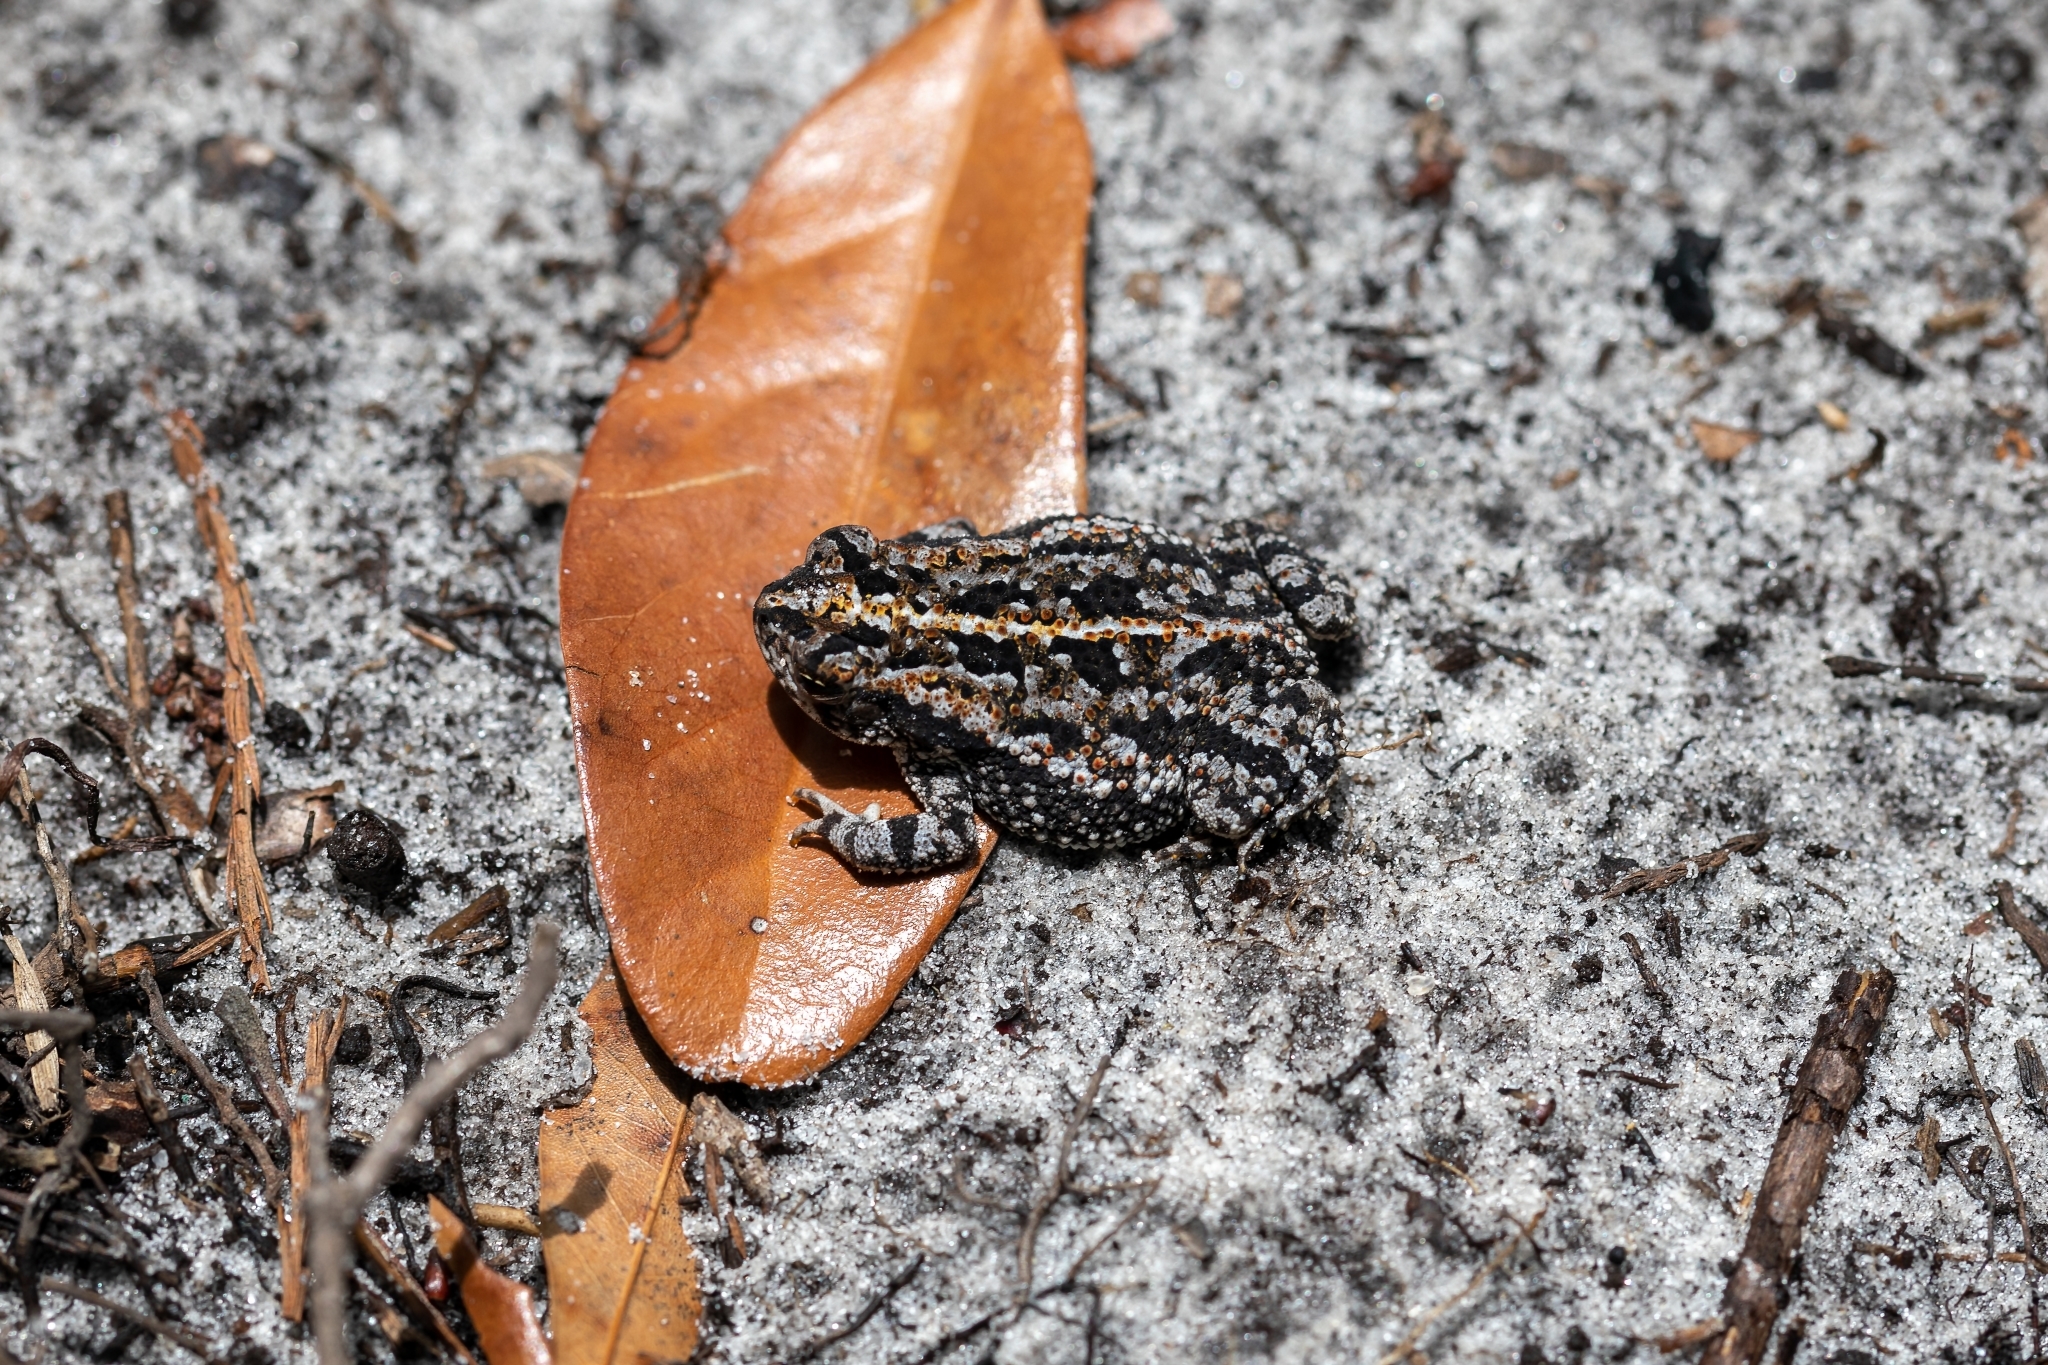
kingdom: Animalia
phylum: Chordata
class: Amphibia
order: Anura
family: Bufonidae
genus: Anaxyrus
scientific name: Anaxyrus quercicus
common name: Oak toad
